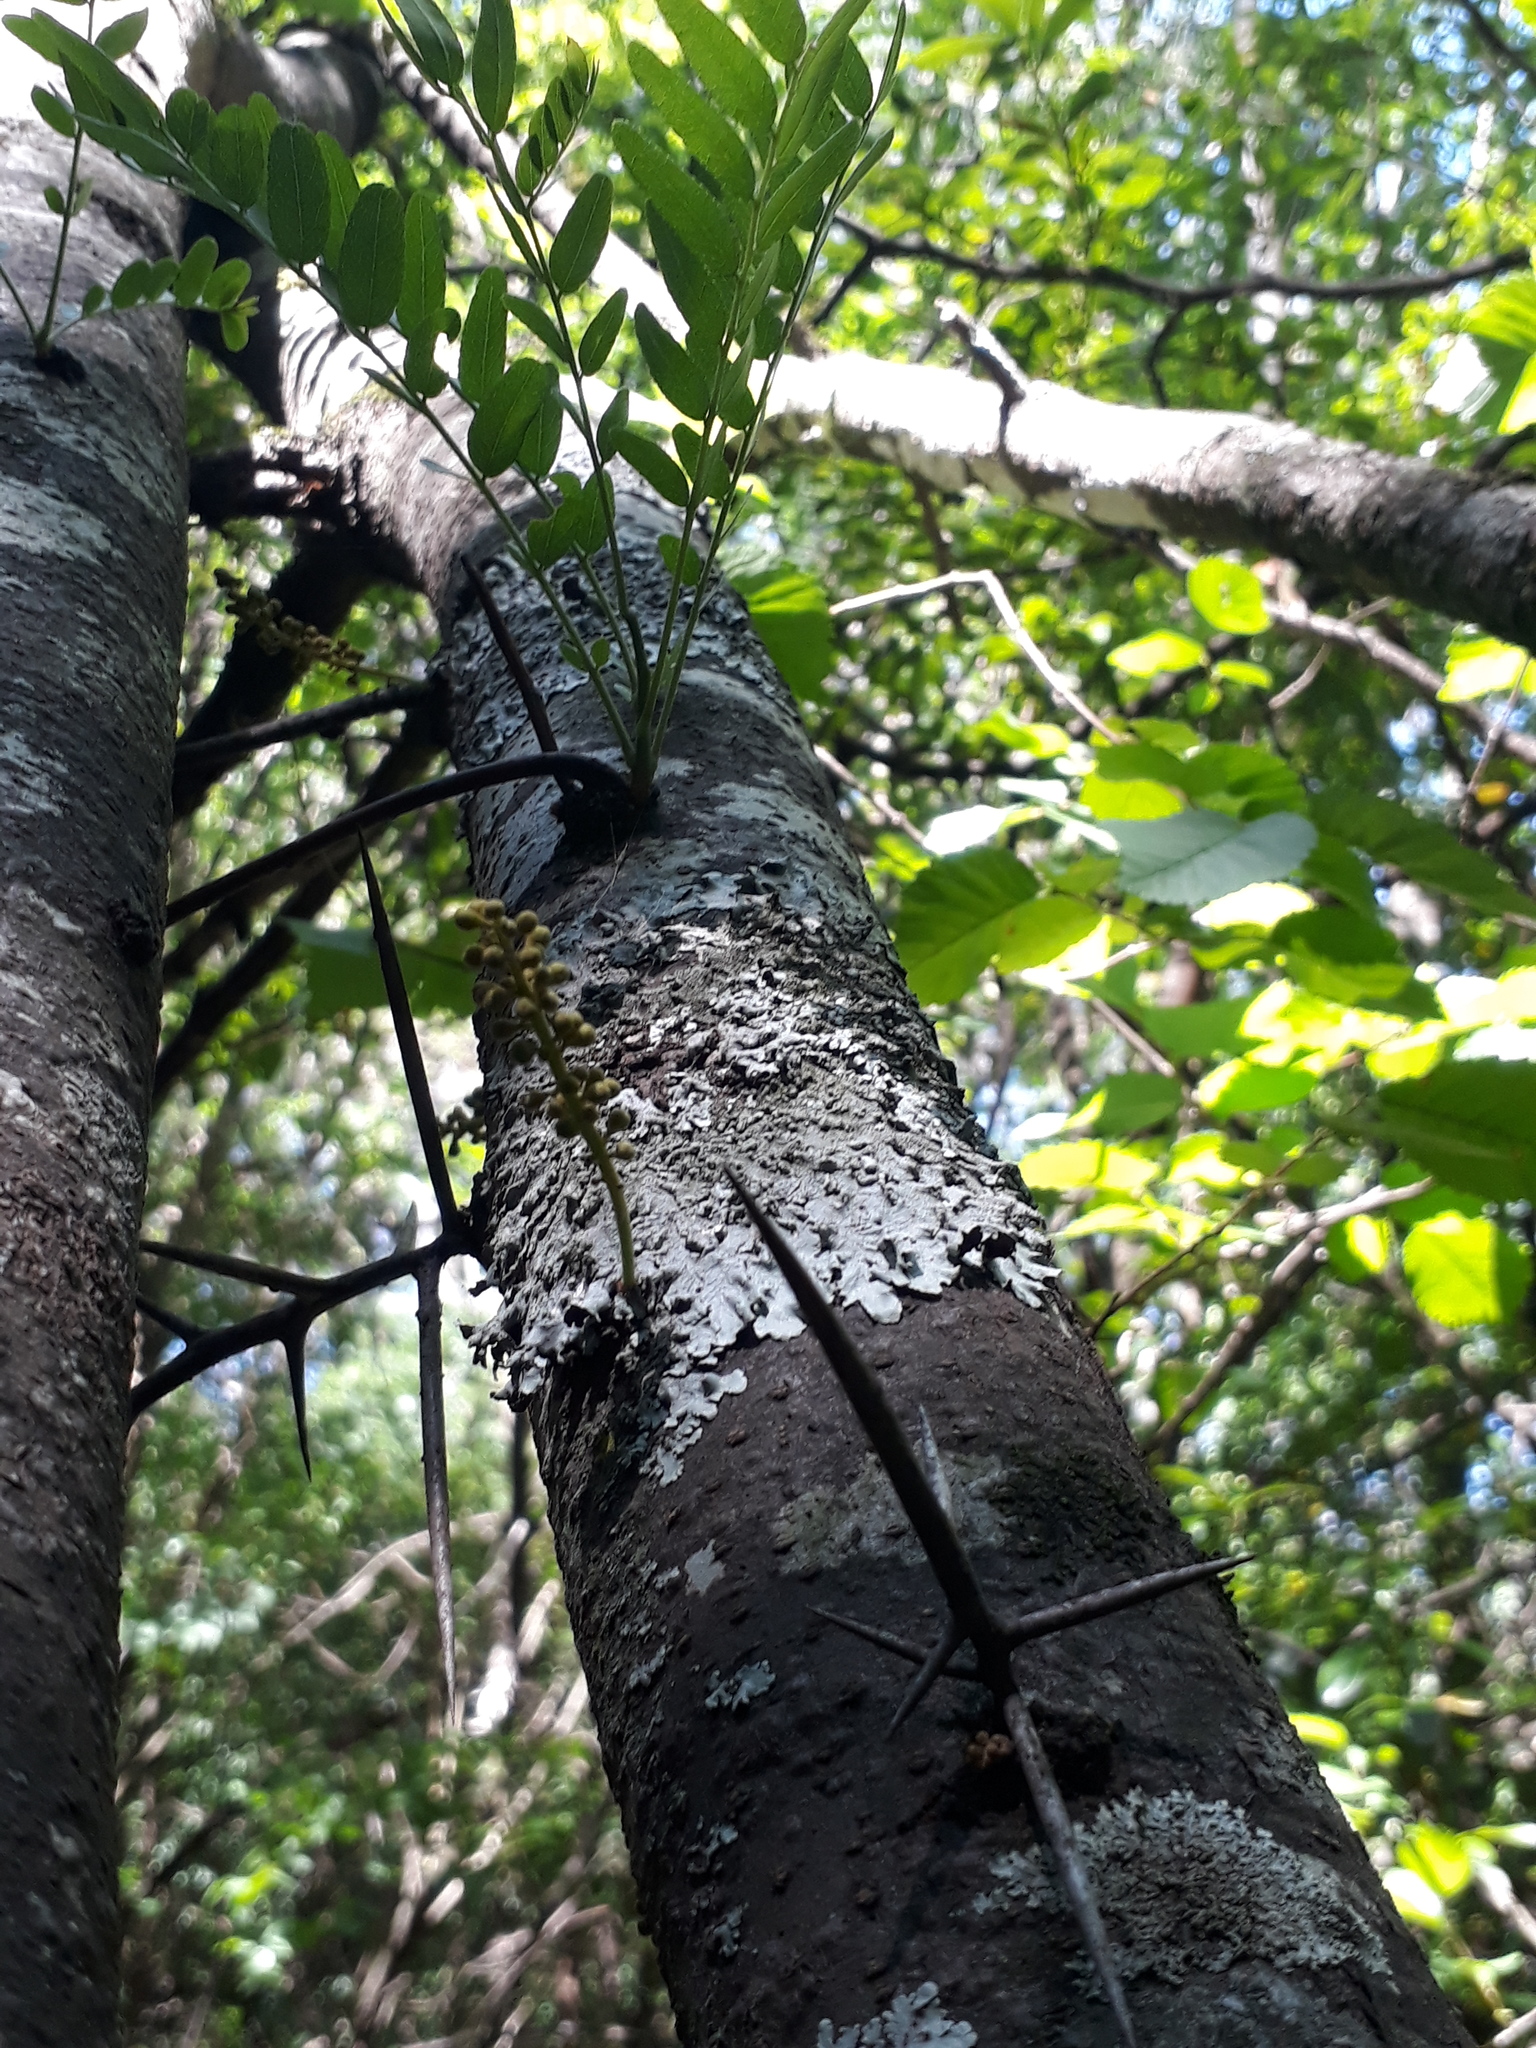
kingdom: Plantae
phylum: Tracheophyta
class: Magnoliopsida
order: Fabales
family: Fabaceae
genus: Gleditsia
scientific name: Gleditsia triacanthos
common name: Common honeylocust
